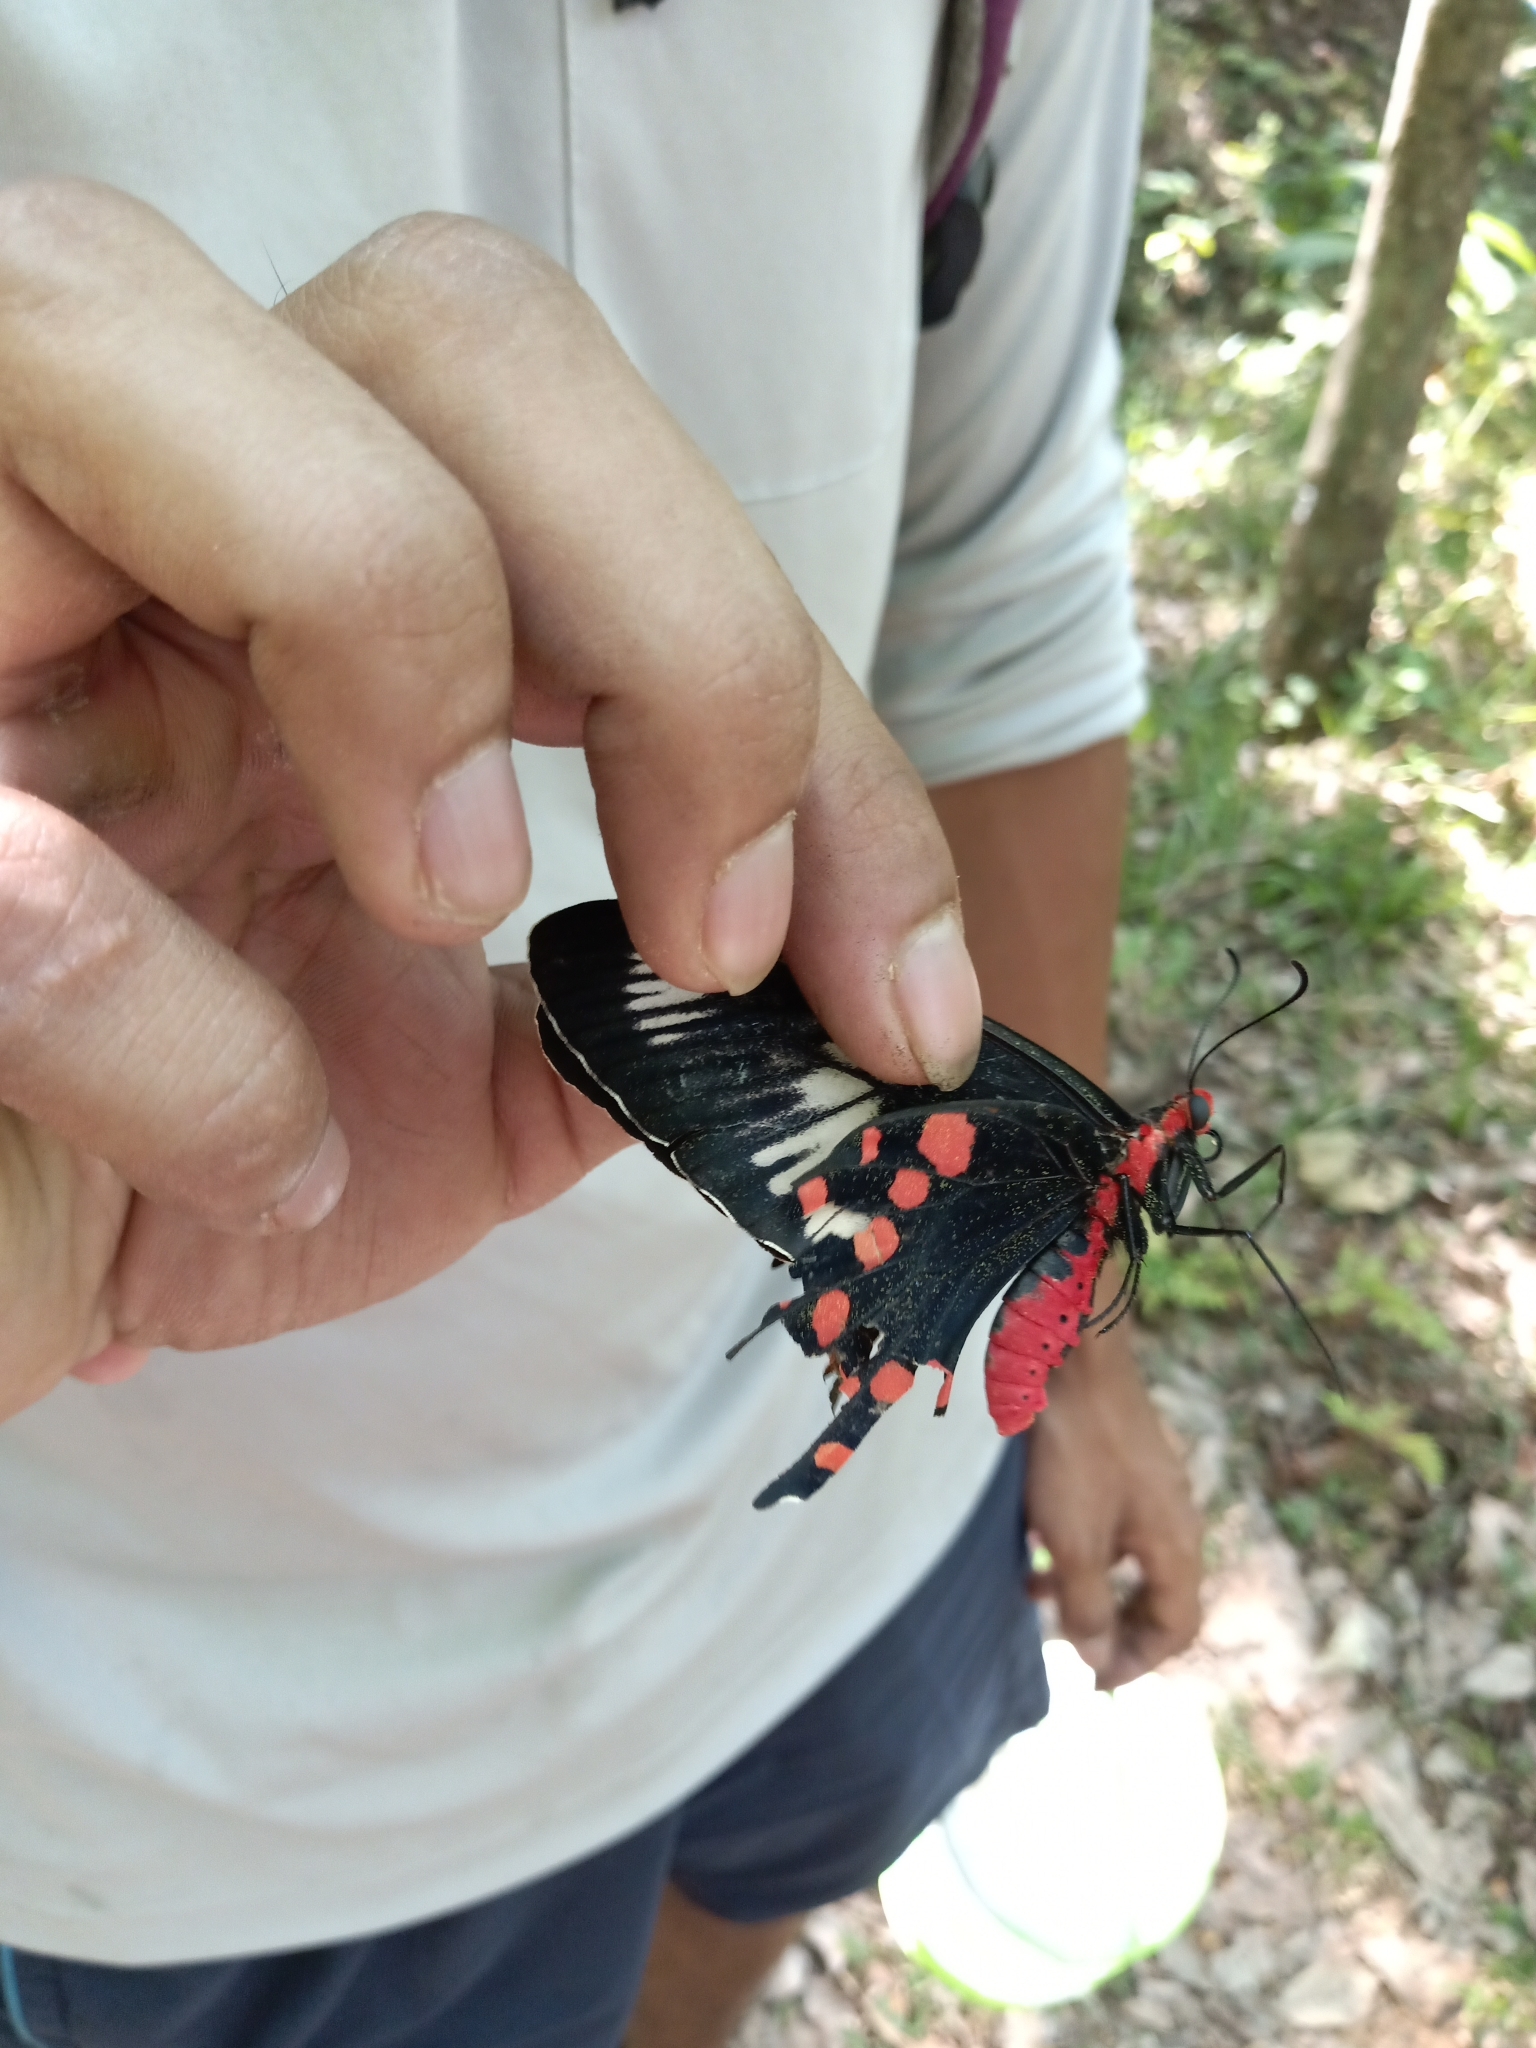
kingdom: Animalia
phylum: Arthropoda
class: Insecta
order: Lepidoptera
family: Papilionidae
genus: Pachliopta
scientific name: Pachliopta hector
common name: Crimson rose
